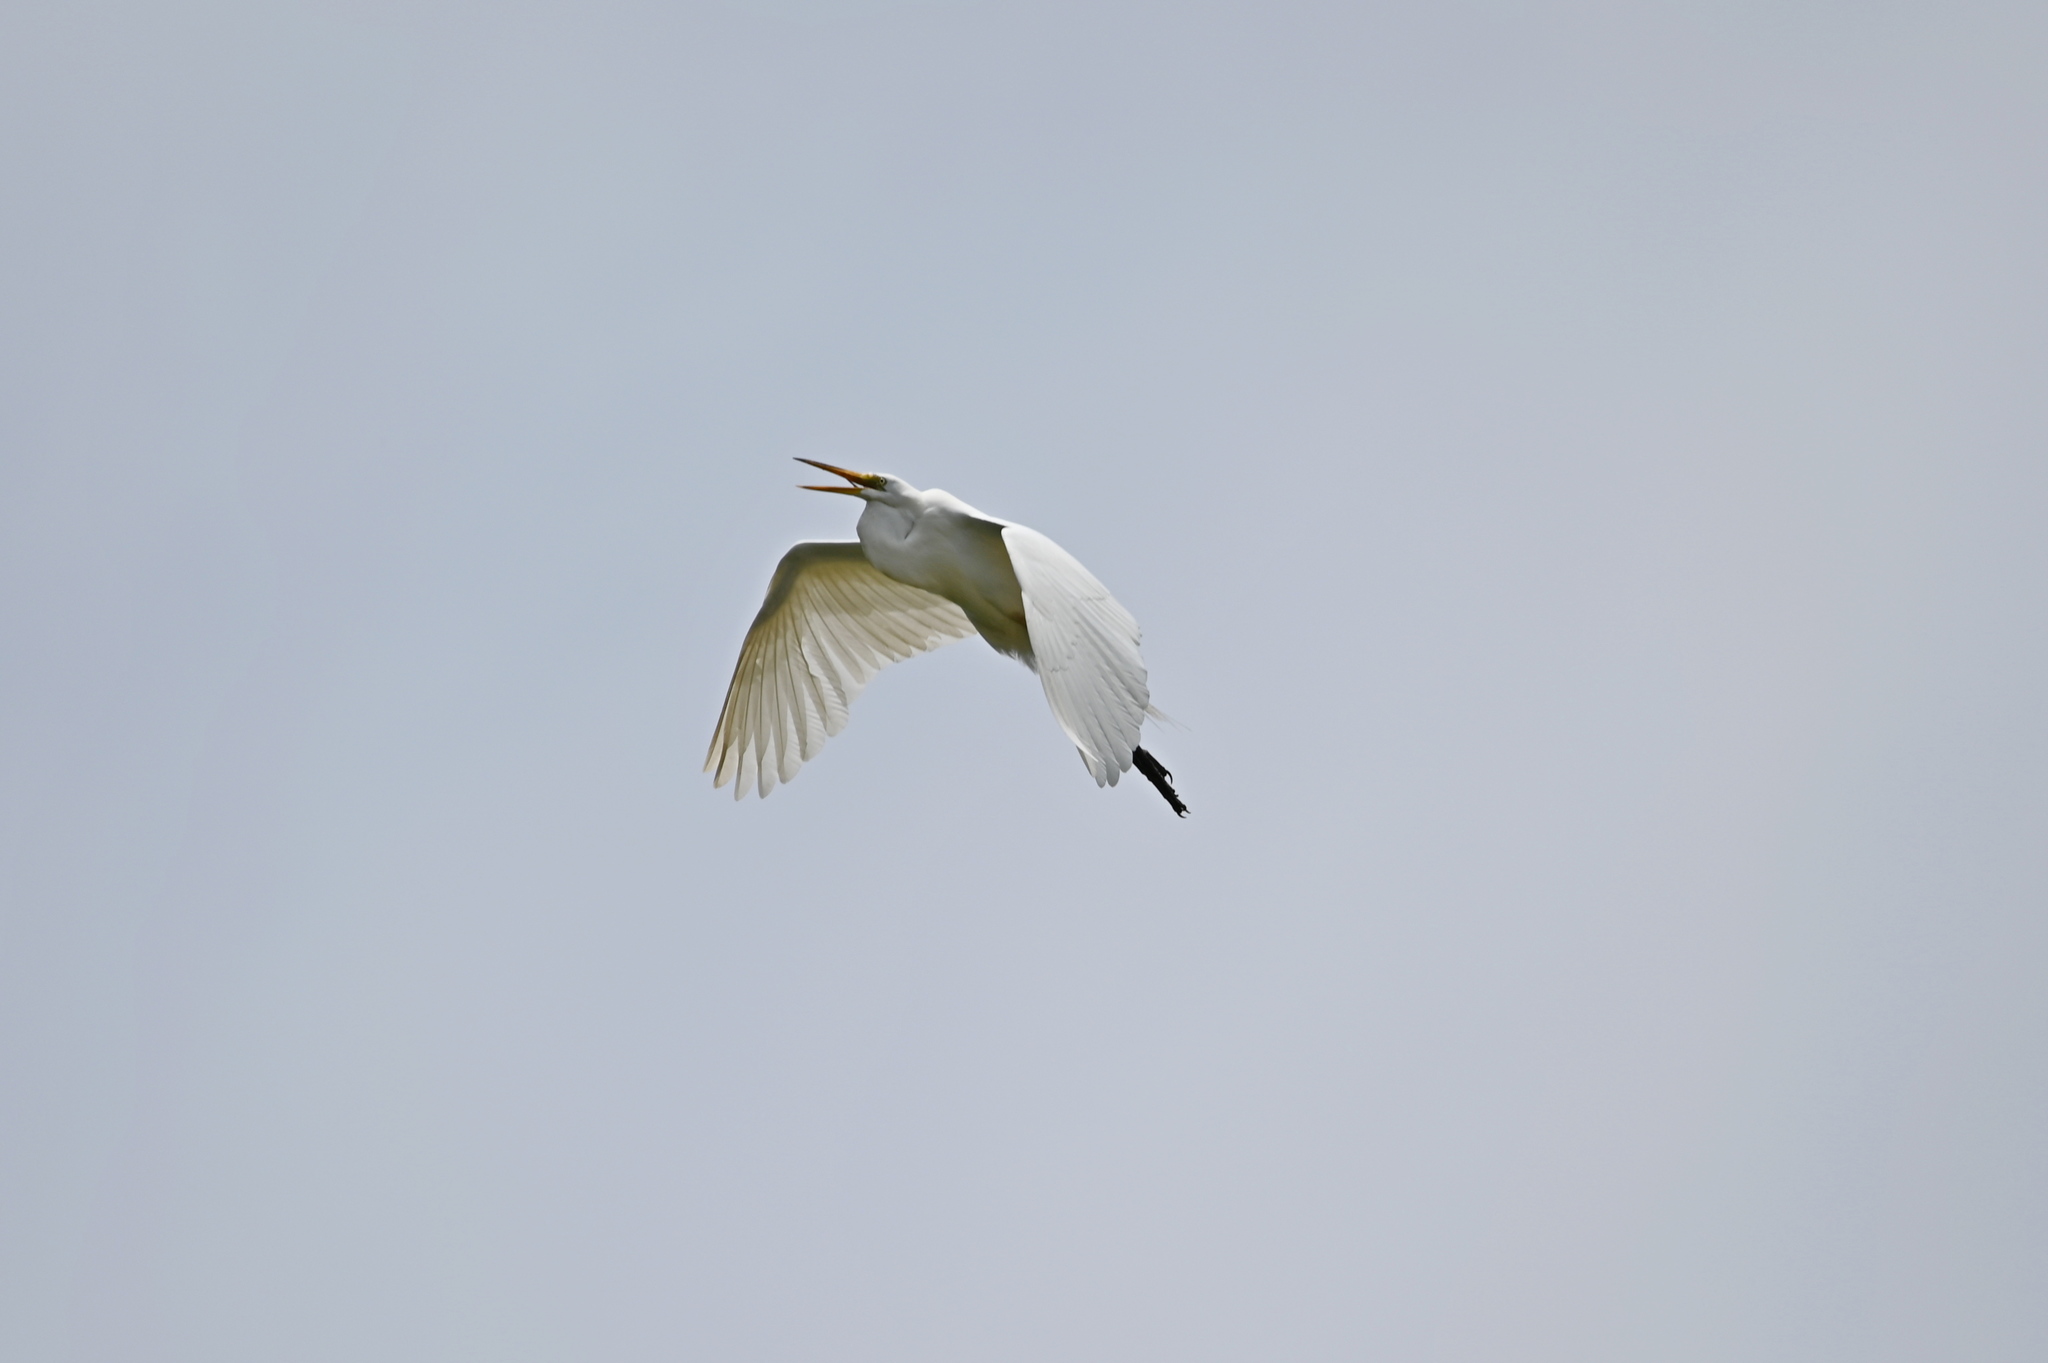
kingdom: Animalia
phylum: Chordata
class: Aves
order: Pelecaniformes
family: Ardeidae
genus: Ardea
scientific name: Ardea alba
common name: Great egret
